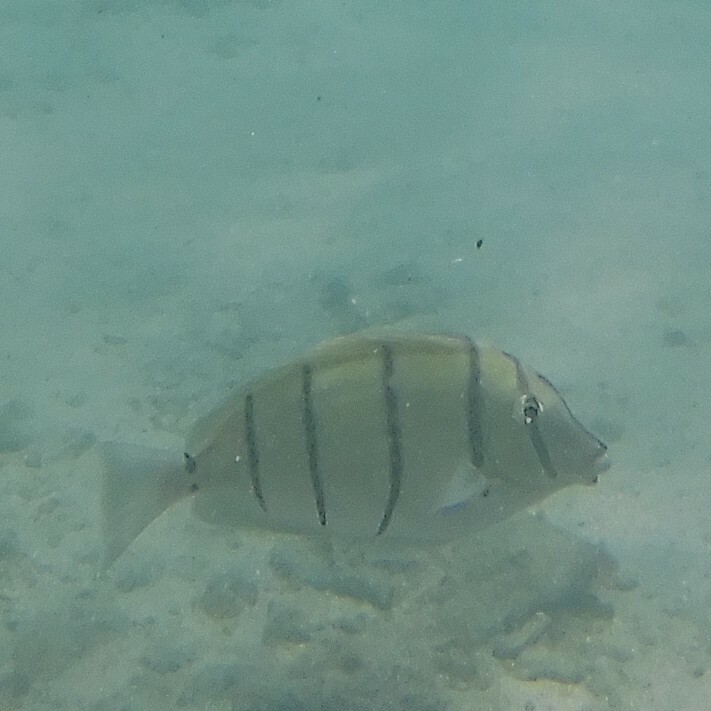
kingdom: Animalia
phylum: Chordata
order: Perciformes
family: Acanthuridae
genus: Acanthurus
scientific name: Acanthurus triostegus
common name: Convict surgeonfish
